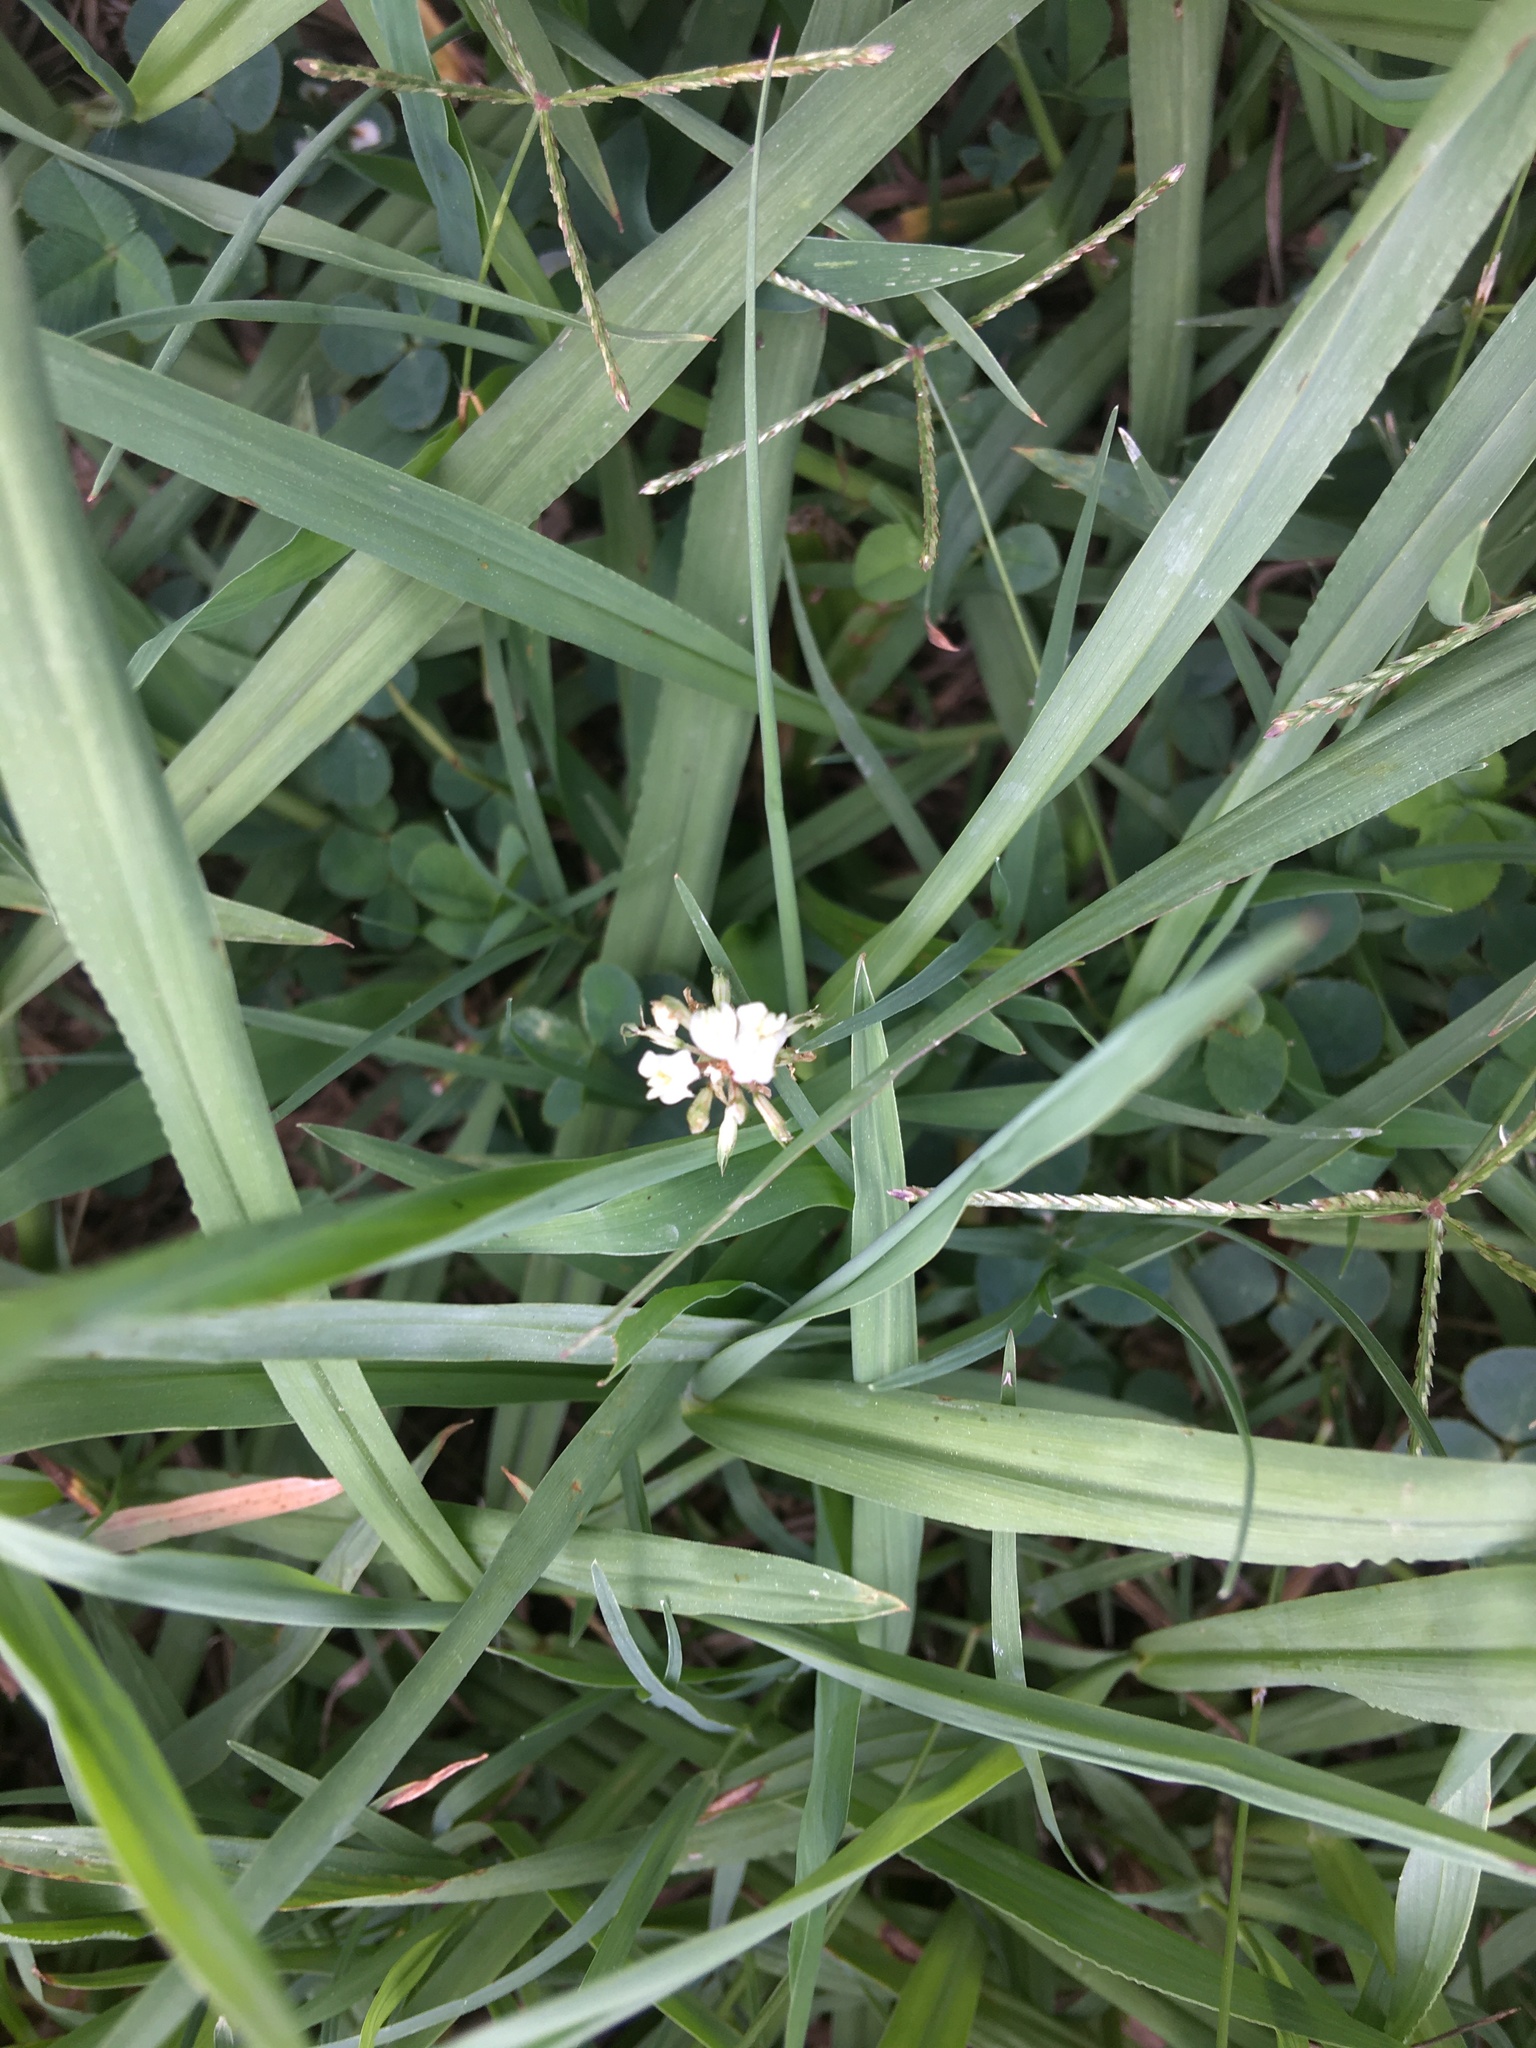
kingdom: Plantae
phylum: Tracheophyta
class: Magnoliopsida
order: Fabales
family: Fabaceae
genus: Trifolium
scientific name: Trifolium repens
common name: White clover
